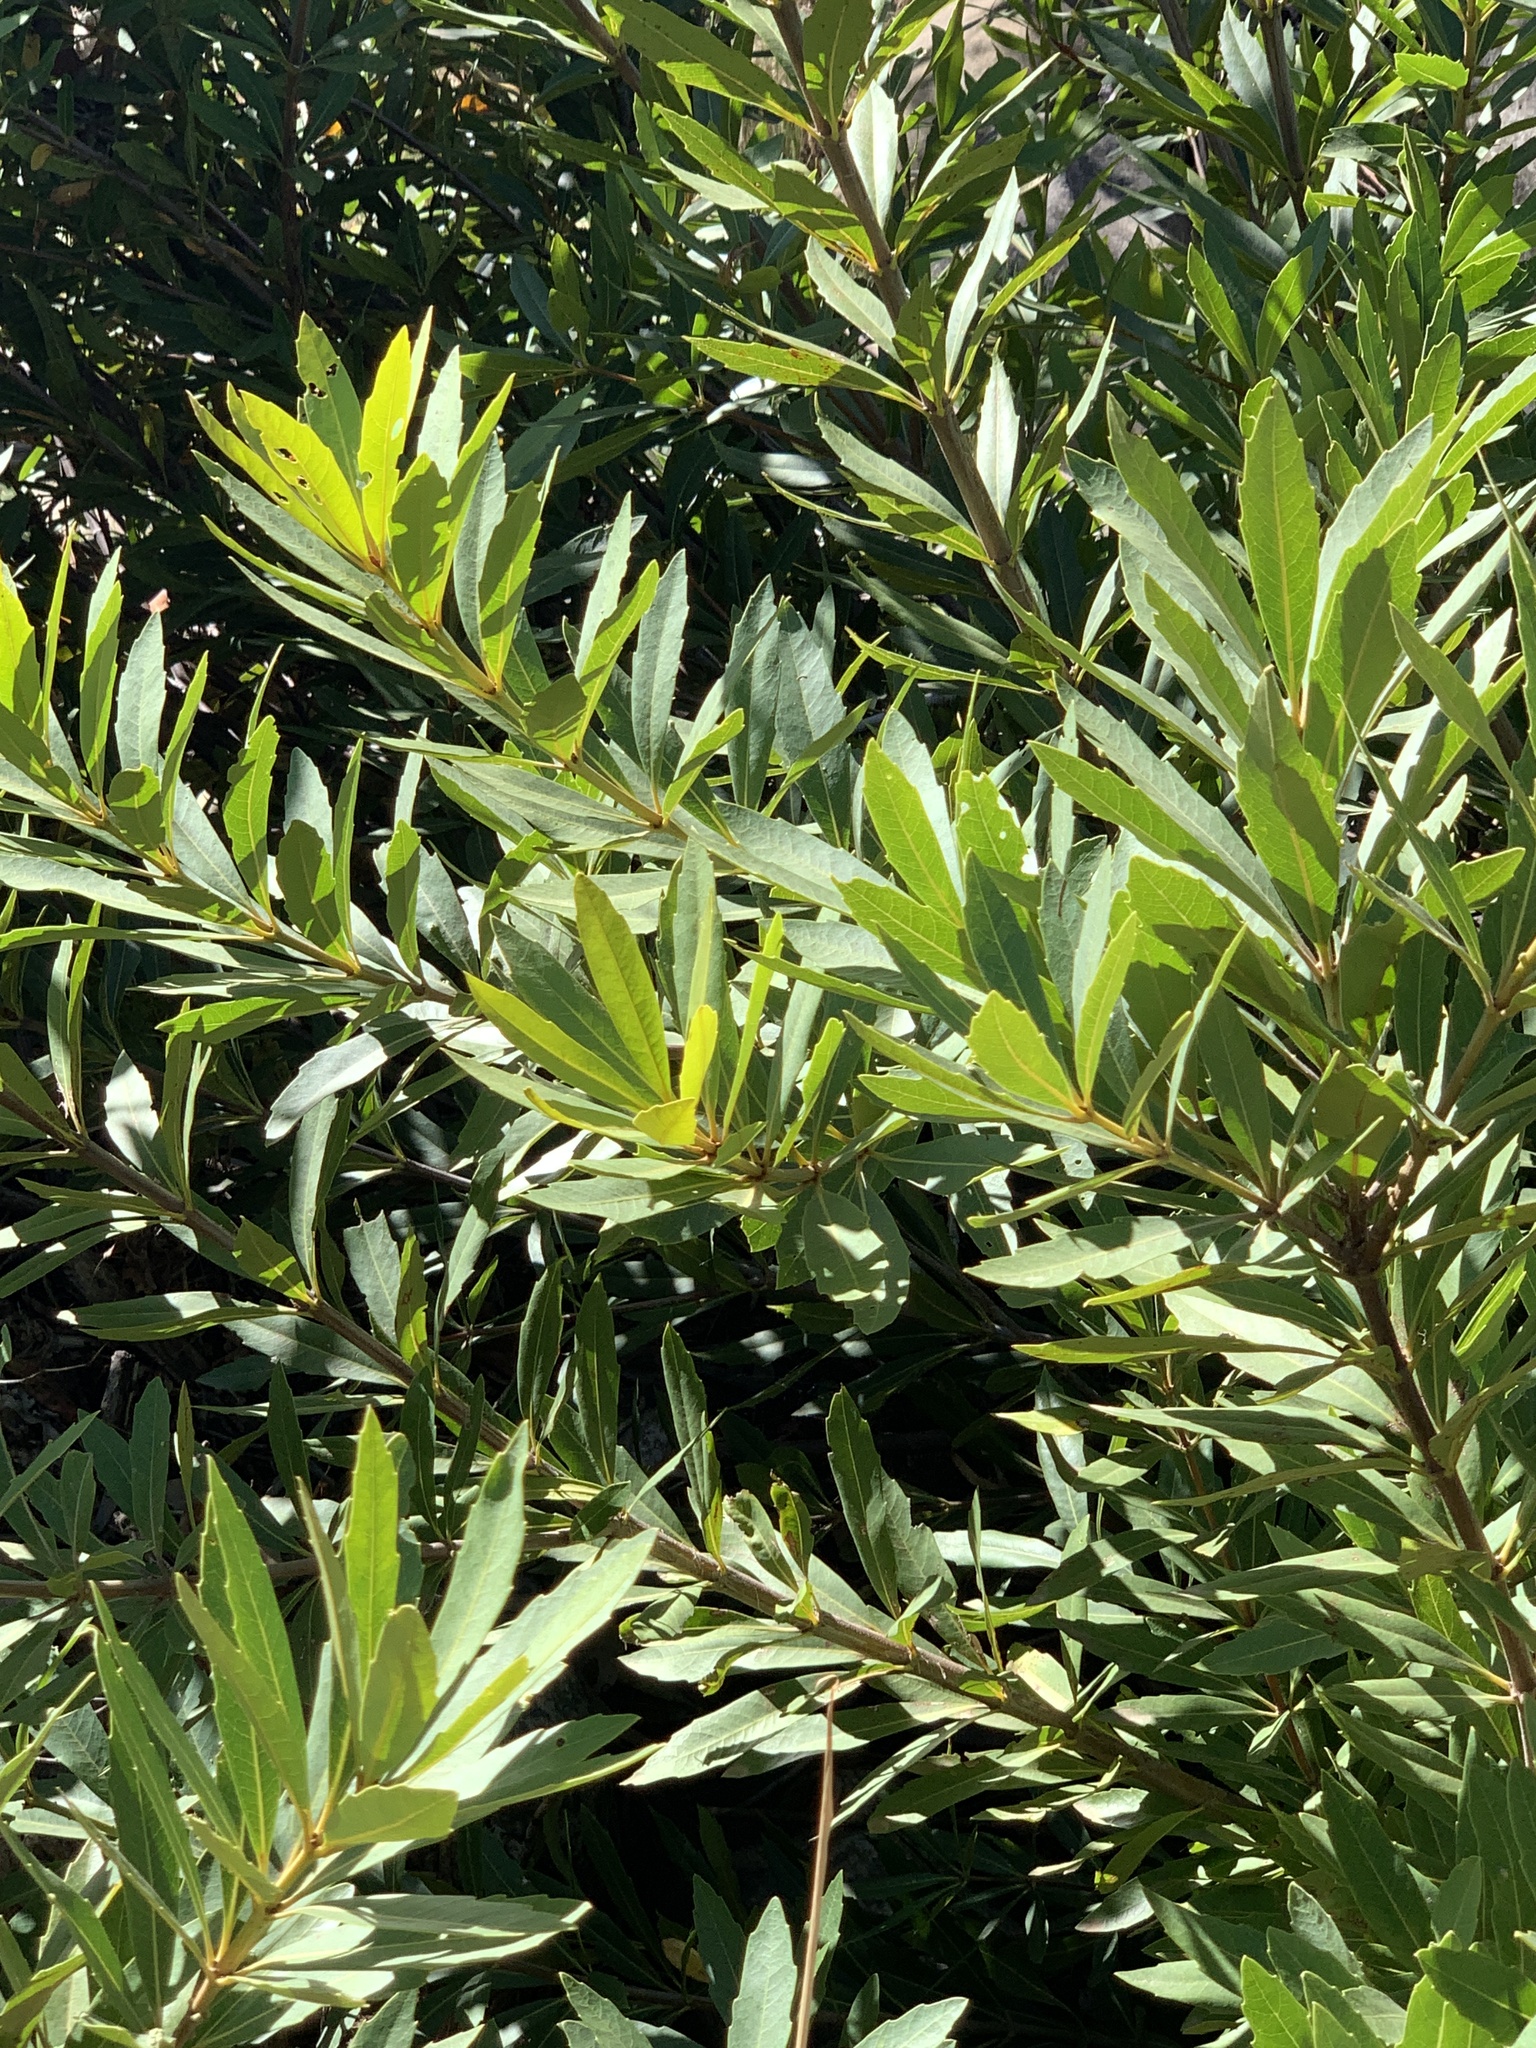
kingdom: Plantae
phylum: Tracheophyta
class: Magnoliopsida
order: Proteales
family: Proteaceae
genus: Brabejum
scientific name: Brabejum stellatifolium
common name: Wild almond
